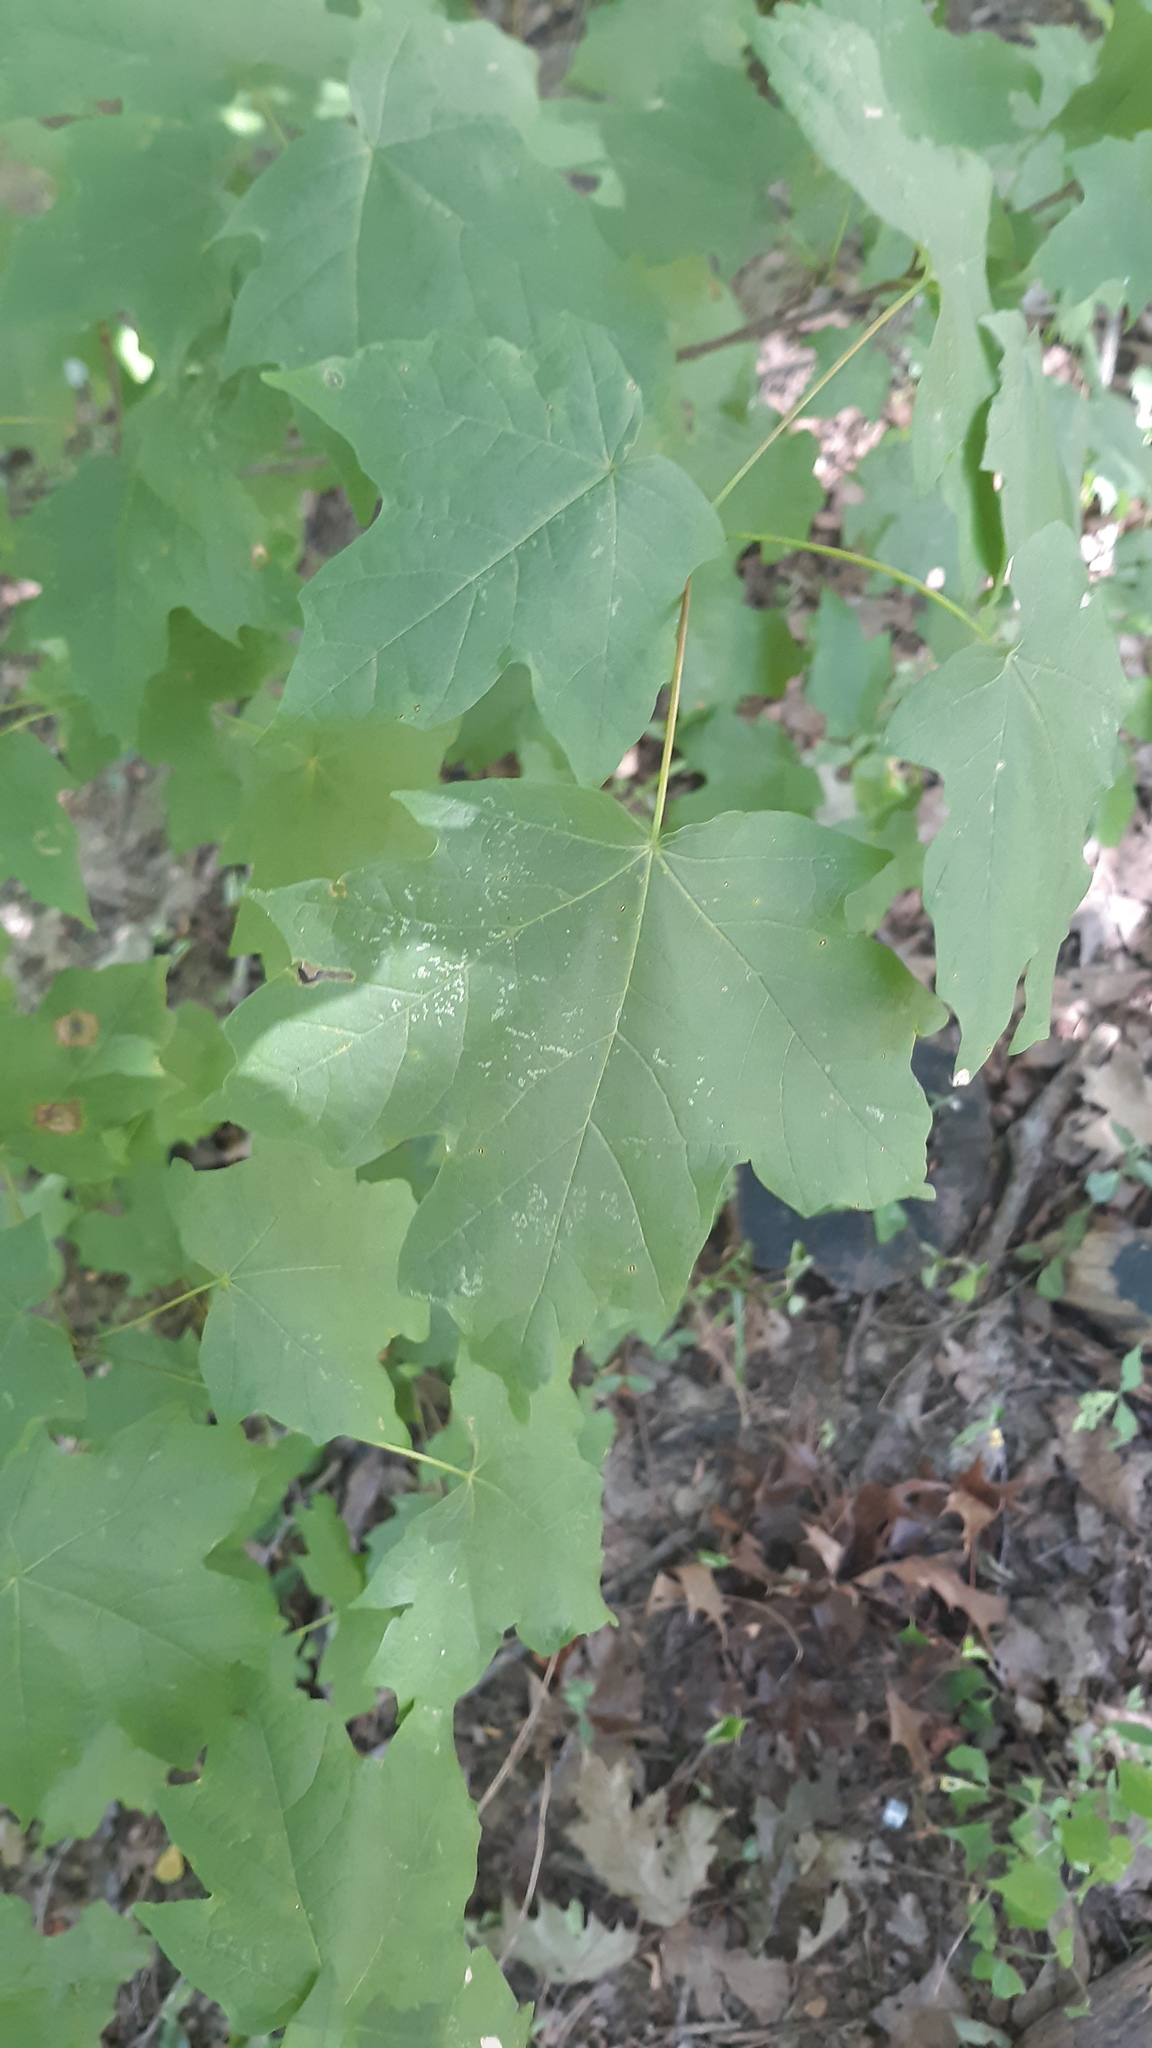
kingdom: Plantae
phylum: Tracheophyta
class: Magnoliopsida
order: Sapindales
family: Sapindaceae
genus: Acer
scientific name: Acer saccharum
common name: Sugar maple
